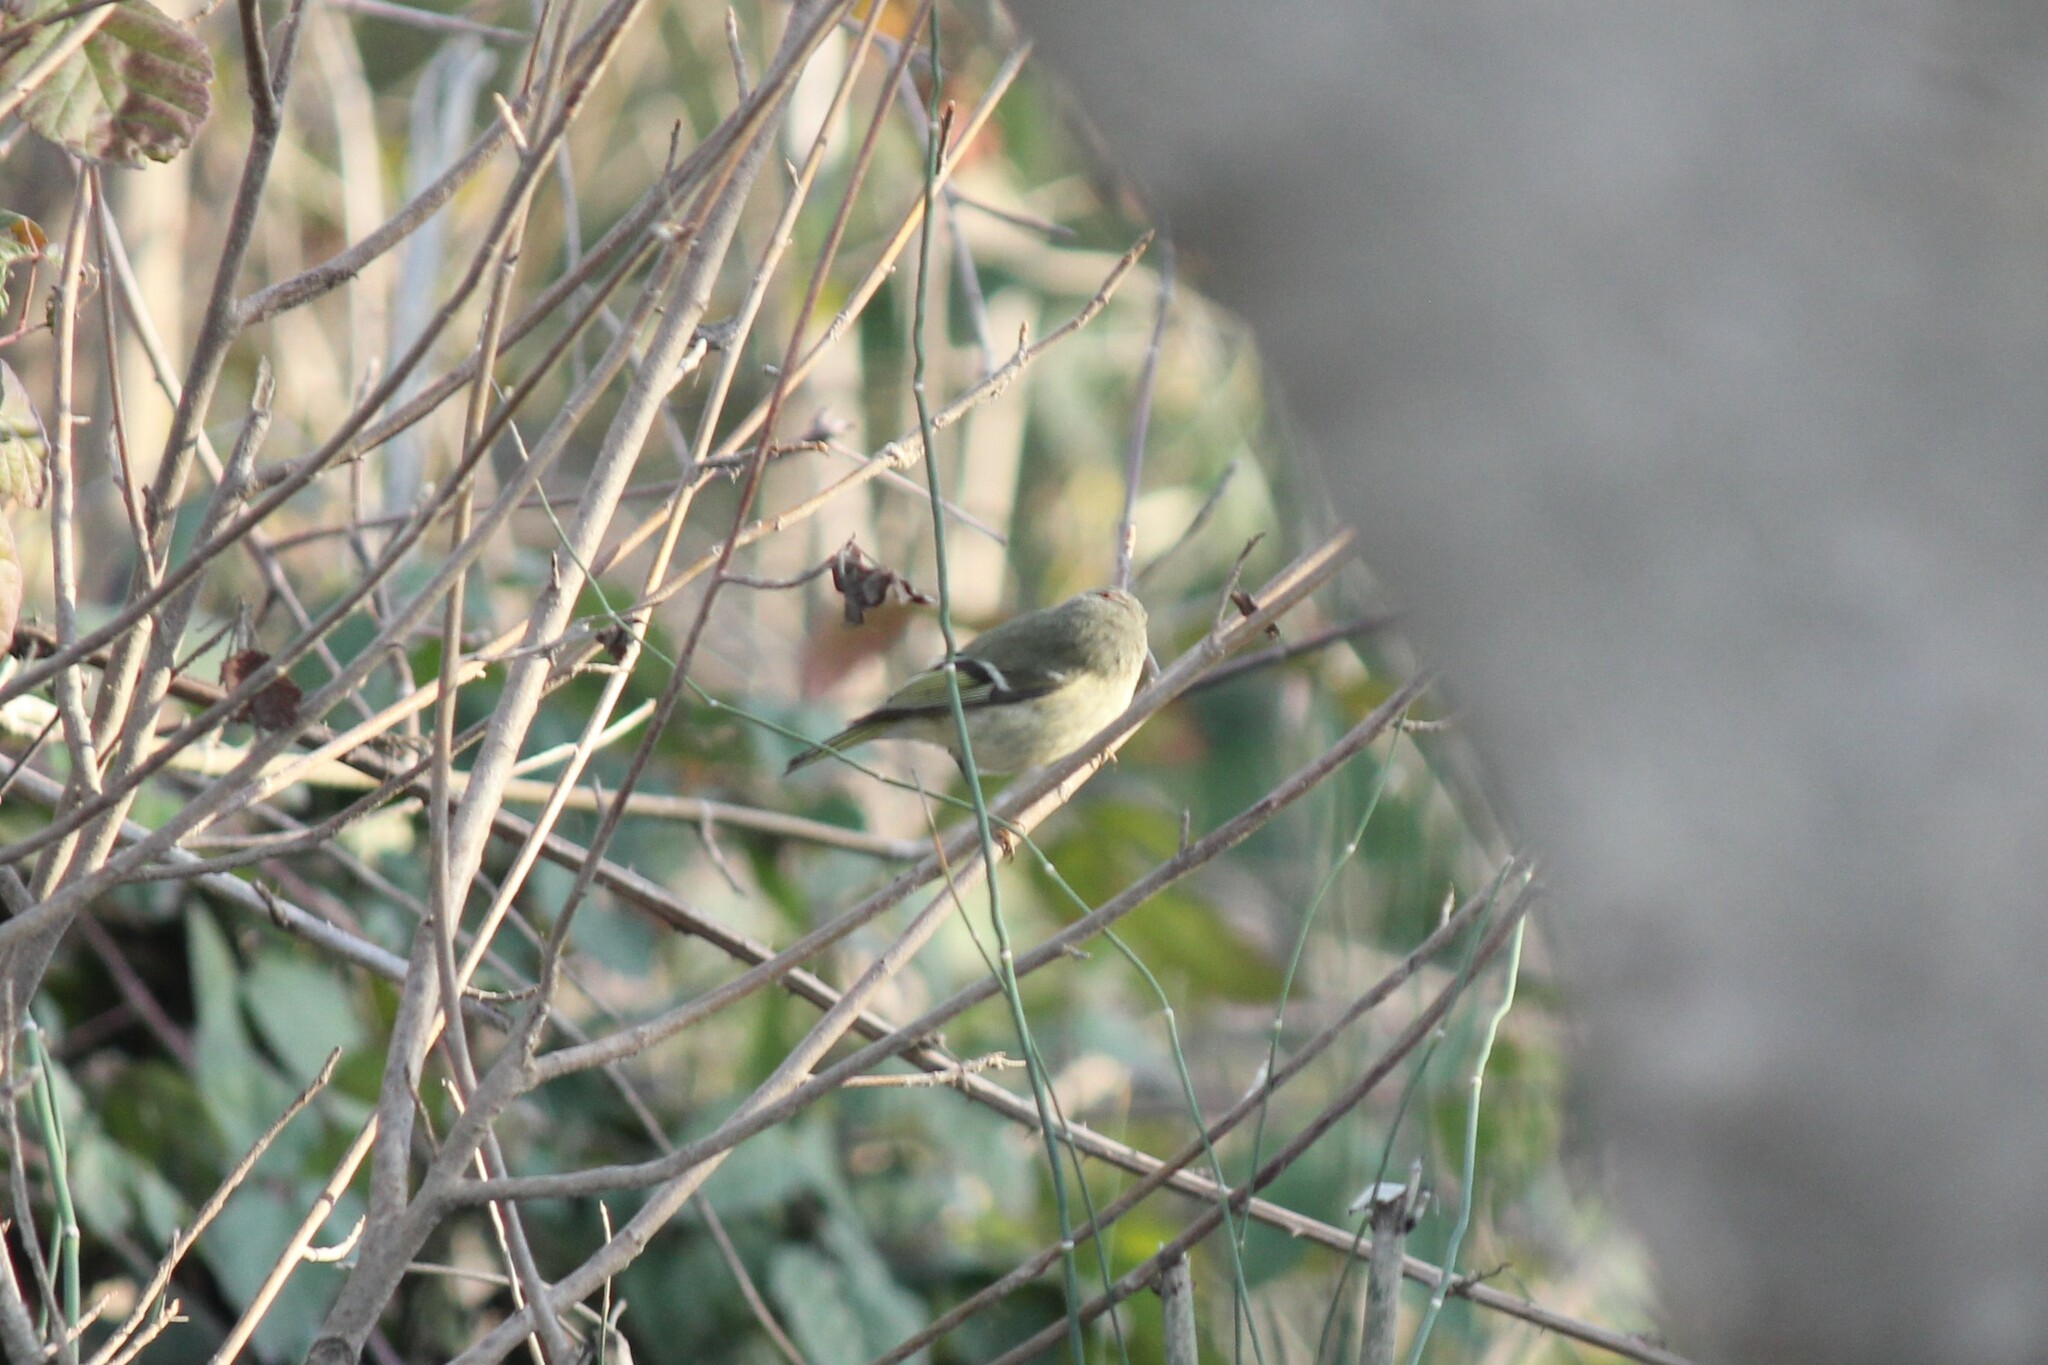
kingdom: Animalia
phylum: Chordata
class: Aves
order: Passeriformes
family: Regulidae
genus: Regulus
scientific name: Regulus calendula
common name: Ruby-crowned kinglet
